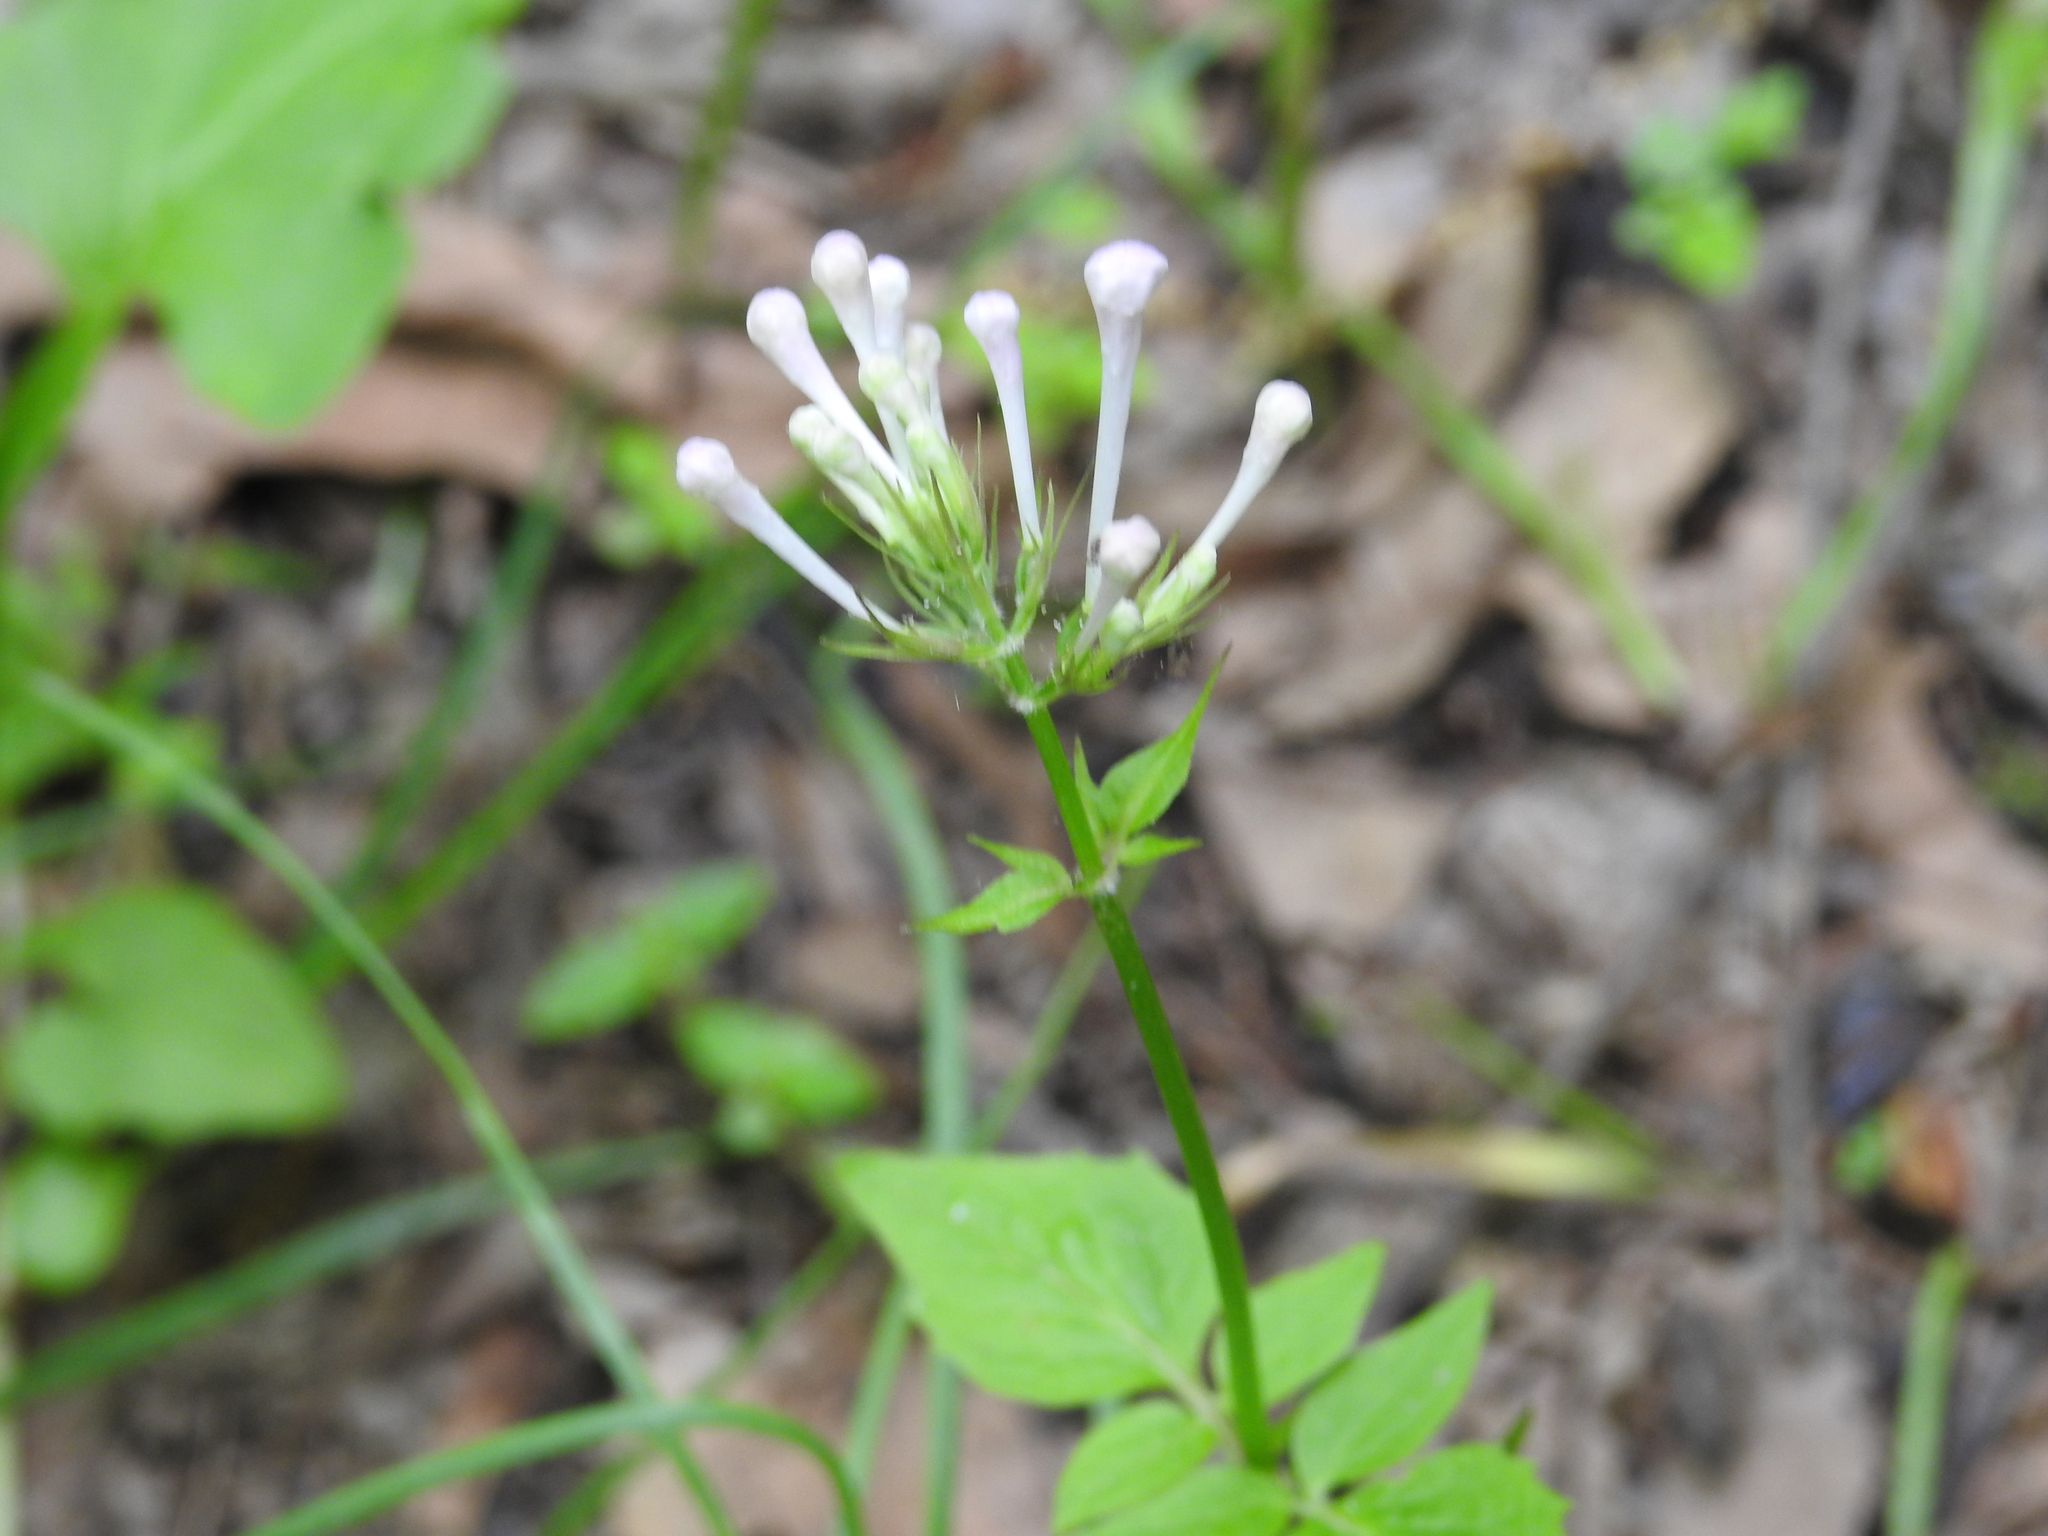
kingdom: Plantae
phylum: Tracheophyta
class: Magnoliopsida
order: Dipsacales
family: Caprifoliaceae
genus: Valeriana
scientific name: Valeriana pauciflora
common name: Long-tube valeriana
